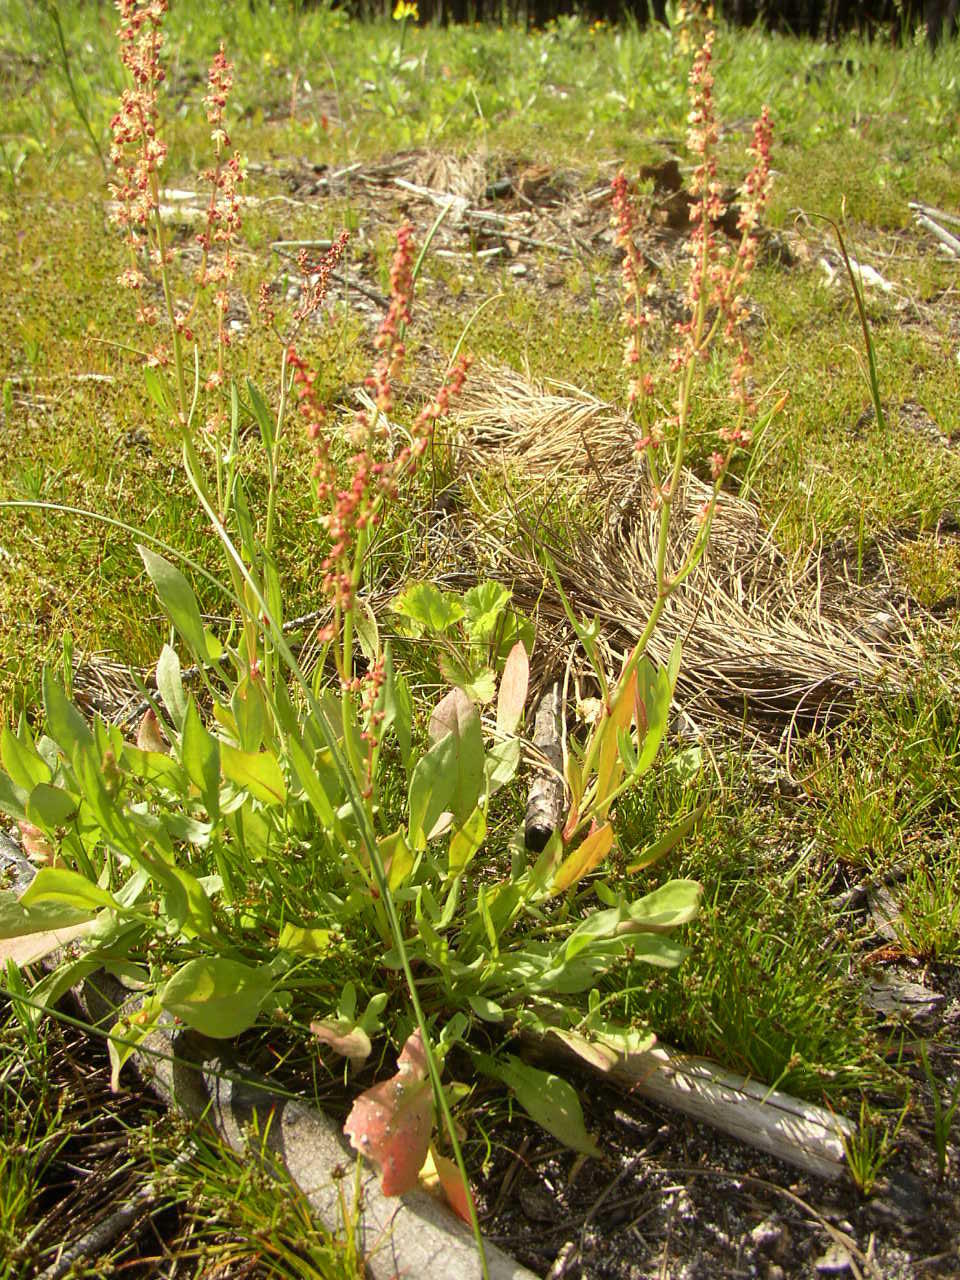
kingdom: Plantae
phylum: Tracheophyta
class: Magnoliopsida
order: Caryophyllales
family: Polygonaceae
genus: Rumex
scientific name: Rumex acetosella
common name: Common sheep sorrel
